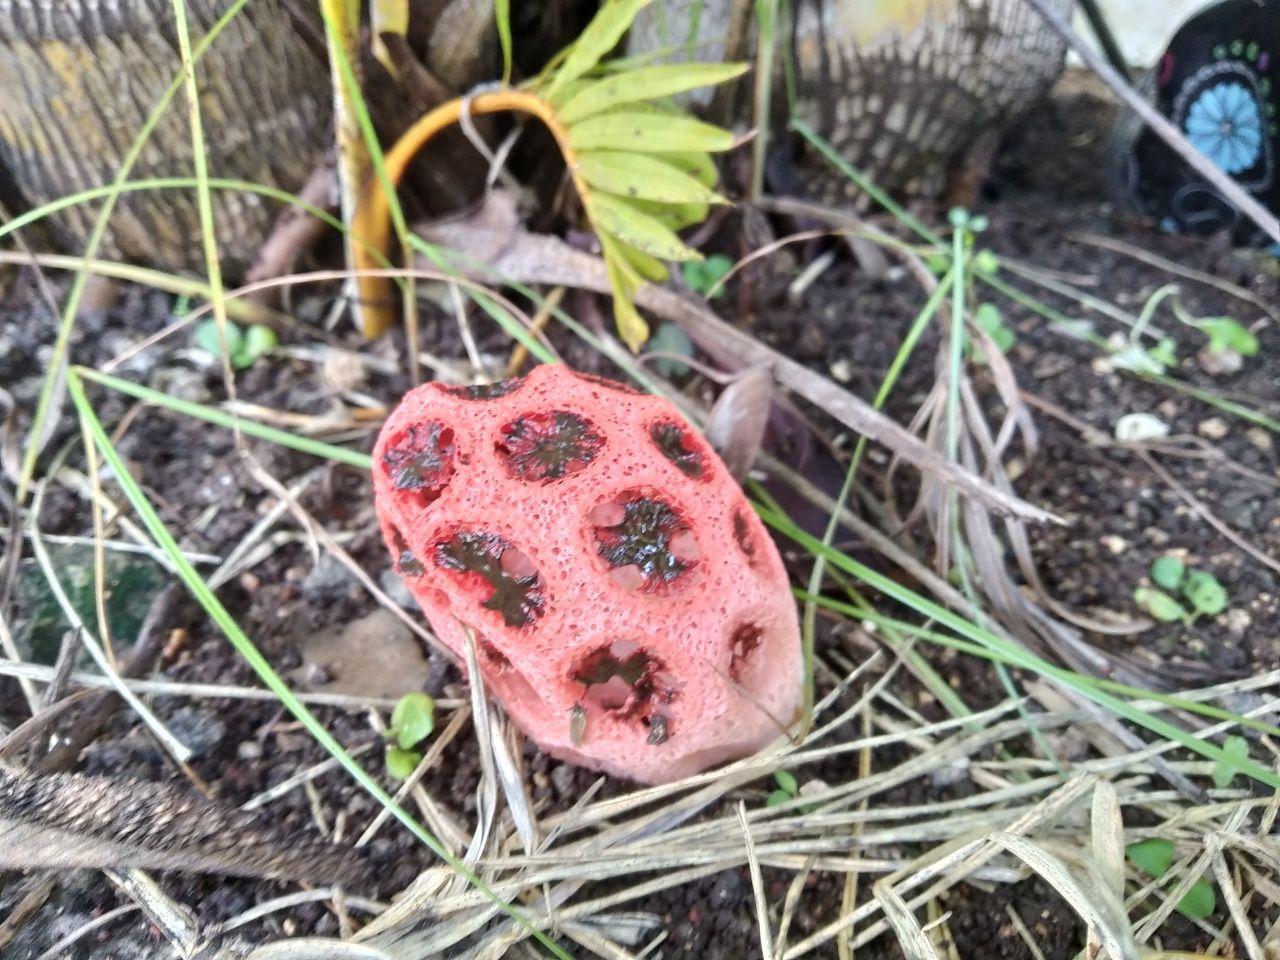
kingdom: Fungi
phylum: Basidiomycota
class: Agaricomycetes
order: Phallales
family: Phallaceae
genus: Clathrus
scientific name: Clathrus crispatus
